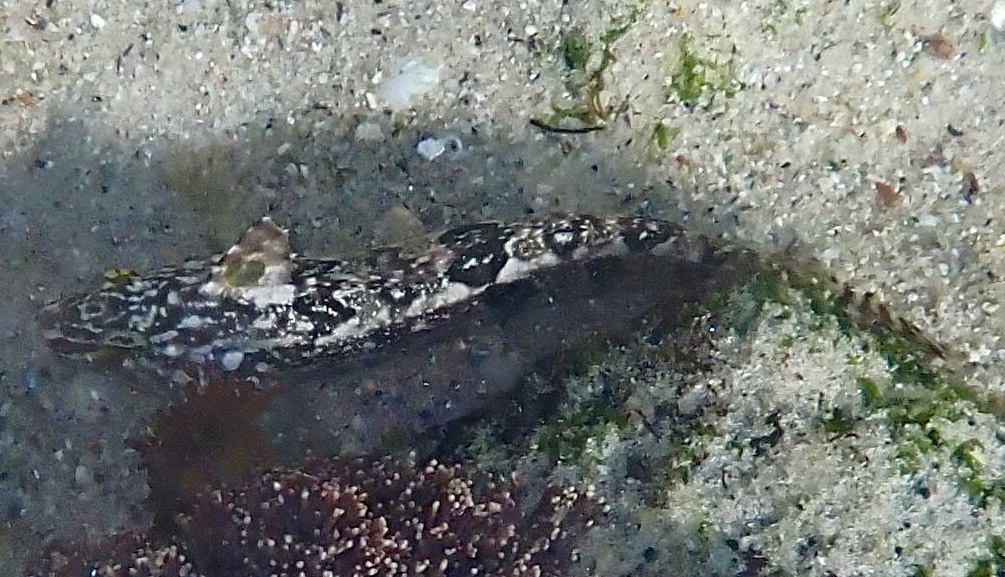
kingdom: Animalia
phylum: Chordata
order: Perciformes
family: Clinidae
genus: Clinus
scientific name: Clinus superciliosus
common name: Super klipfish
